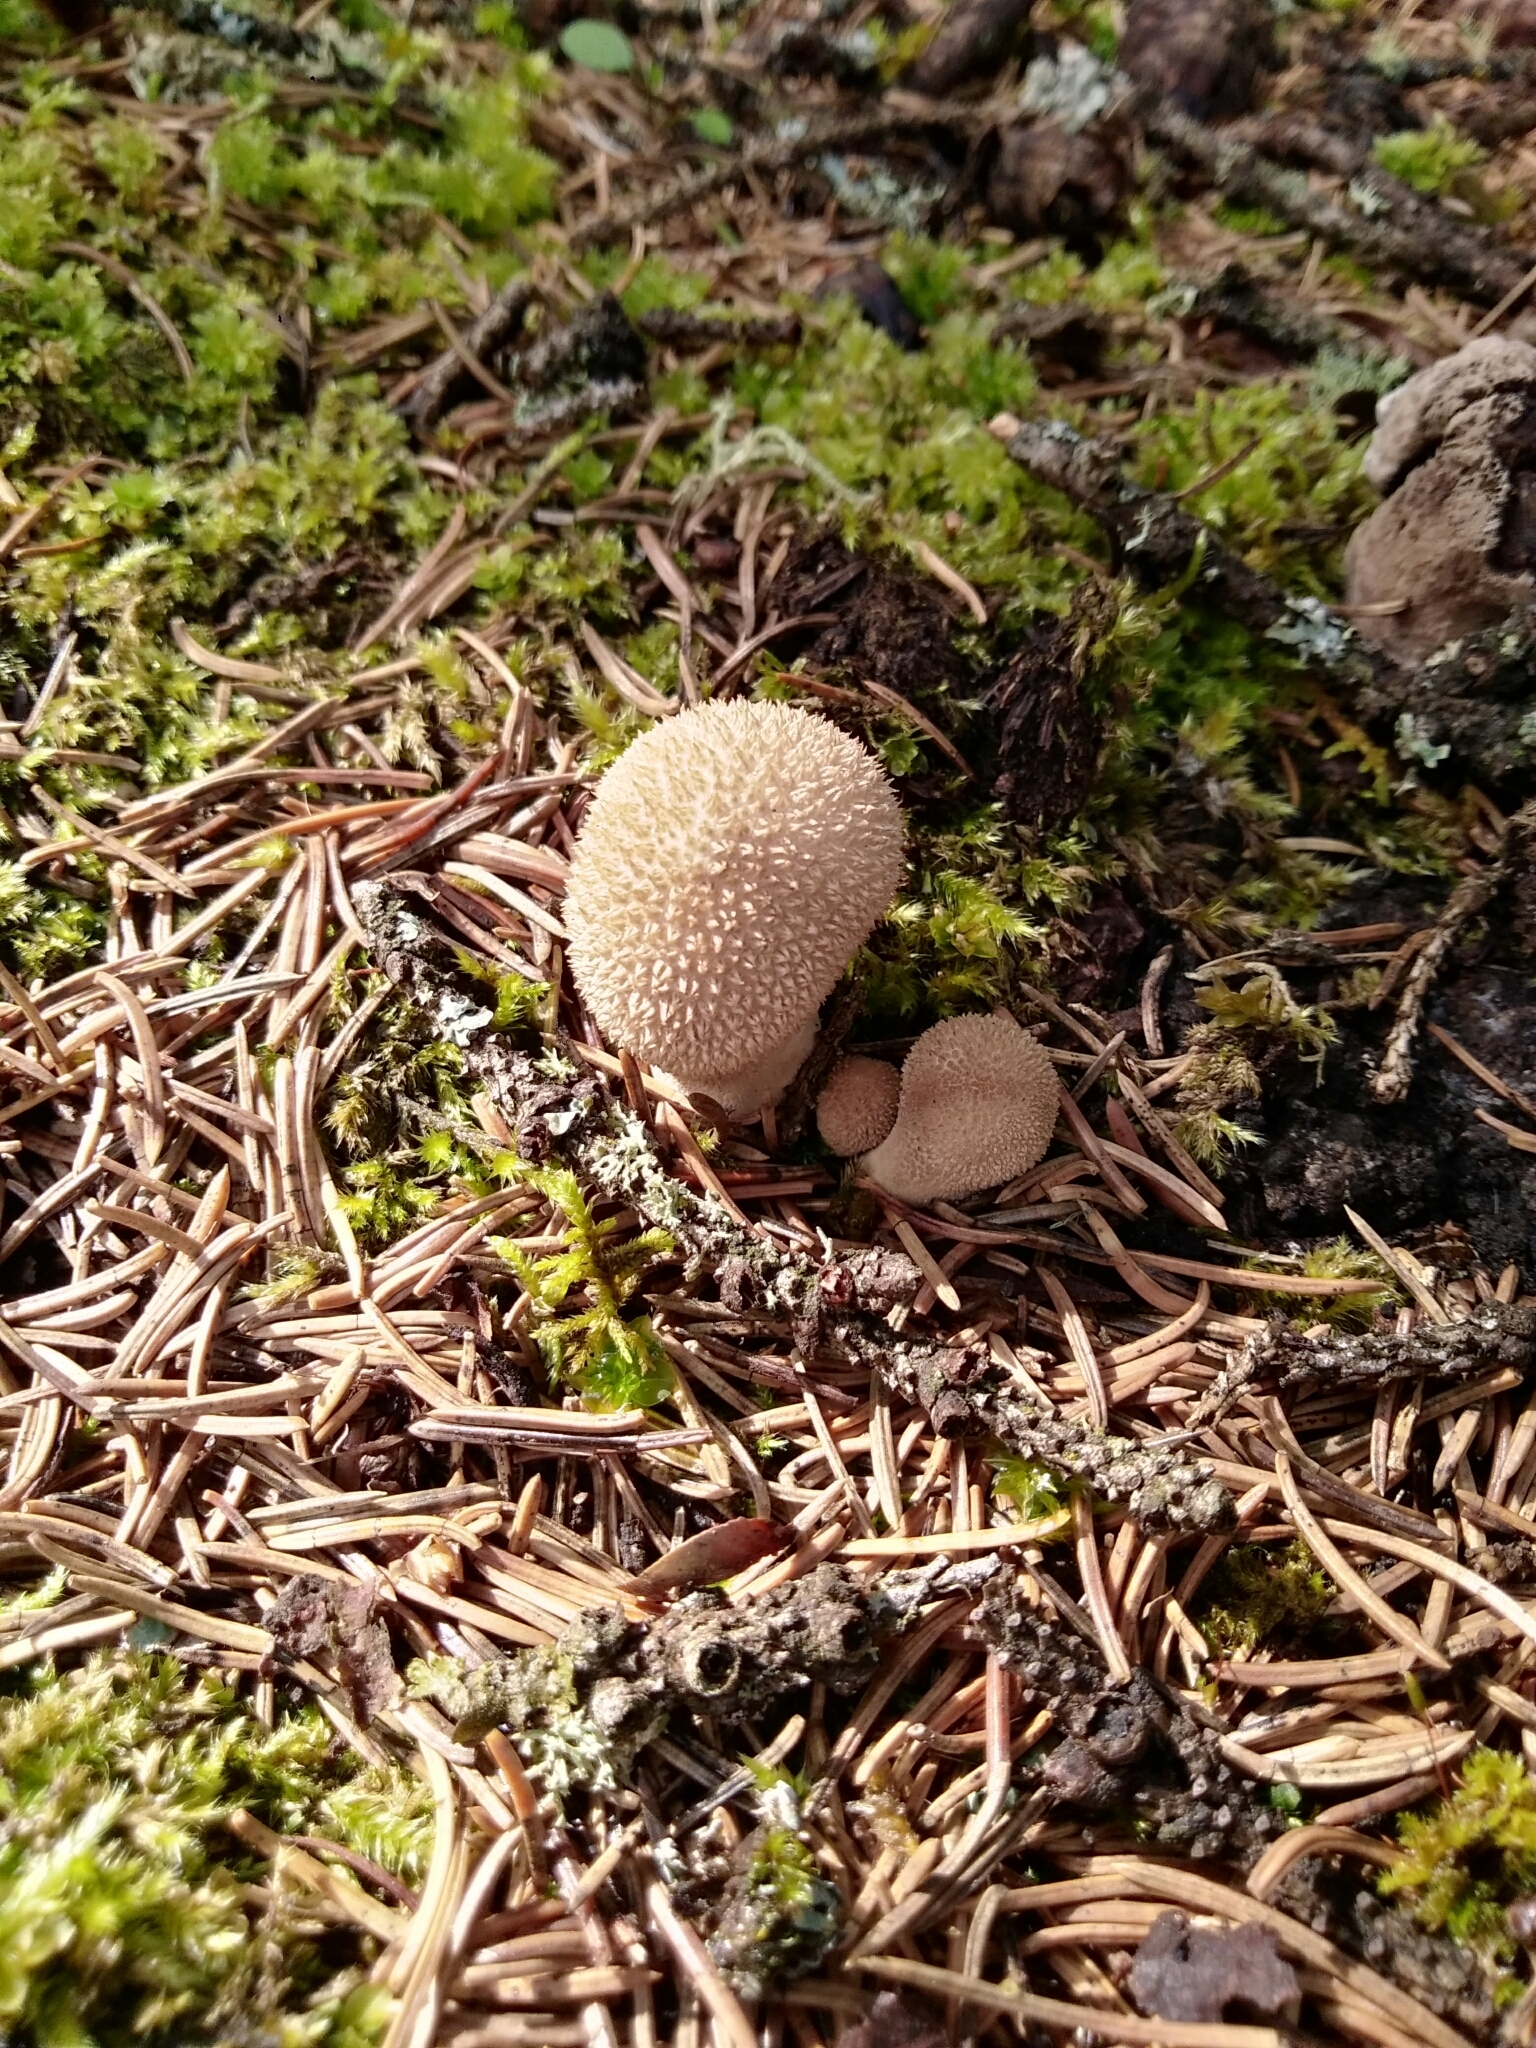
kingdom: Fungi
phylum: Basidiomycota
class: Agaricomycetes
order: Agaricales
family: Agaricaceae
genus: Lycoperdon
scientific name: Lycoperdon marginatum
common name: Peeling puffball
